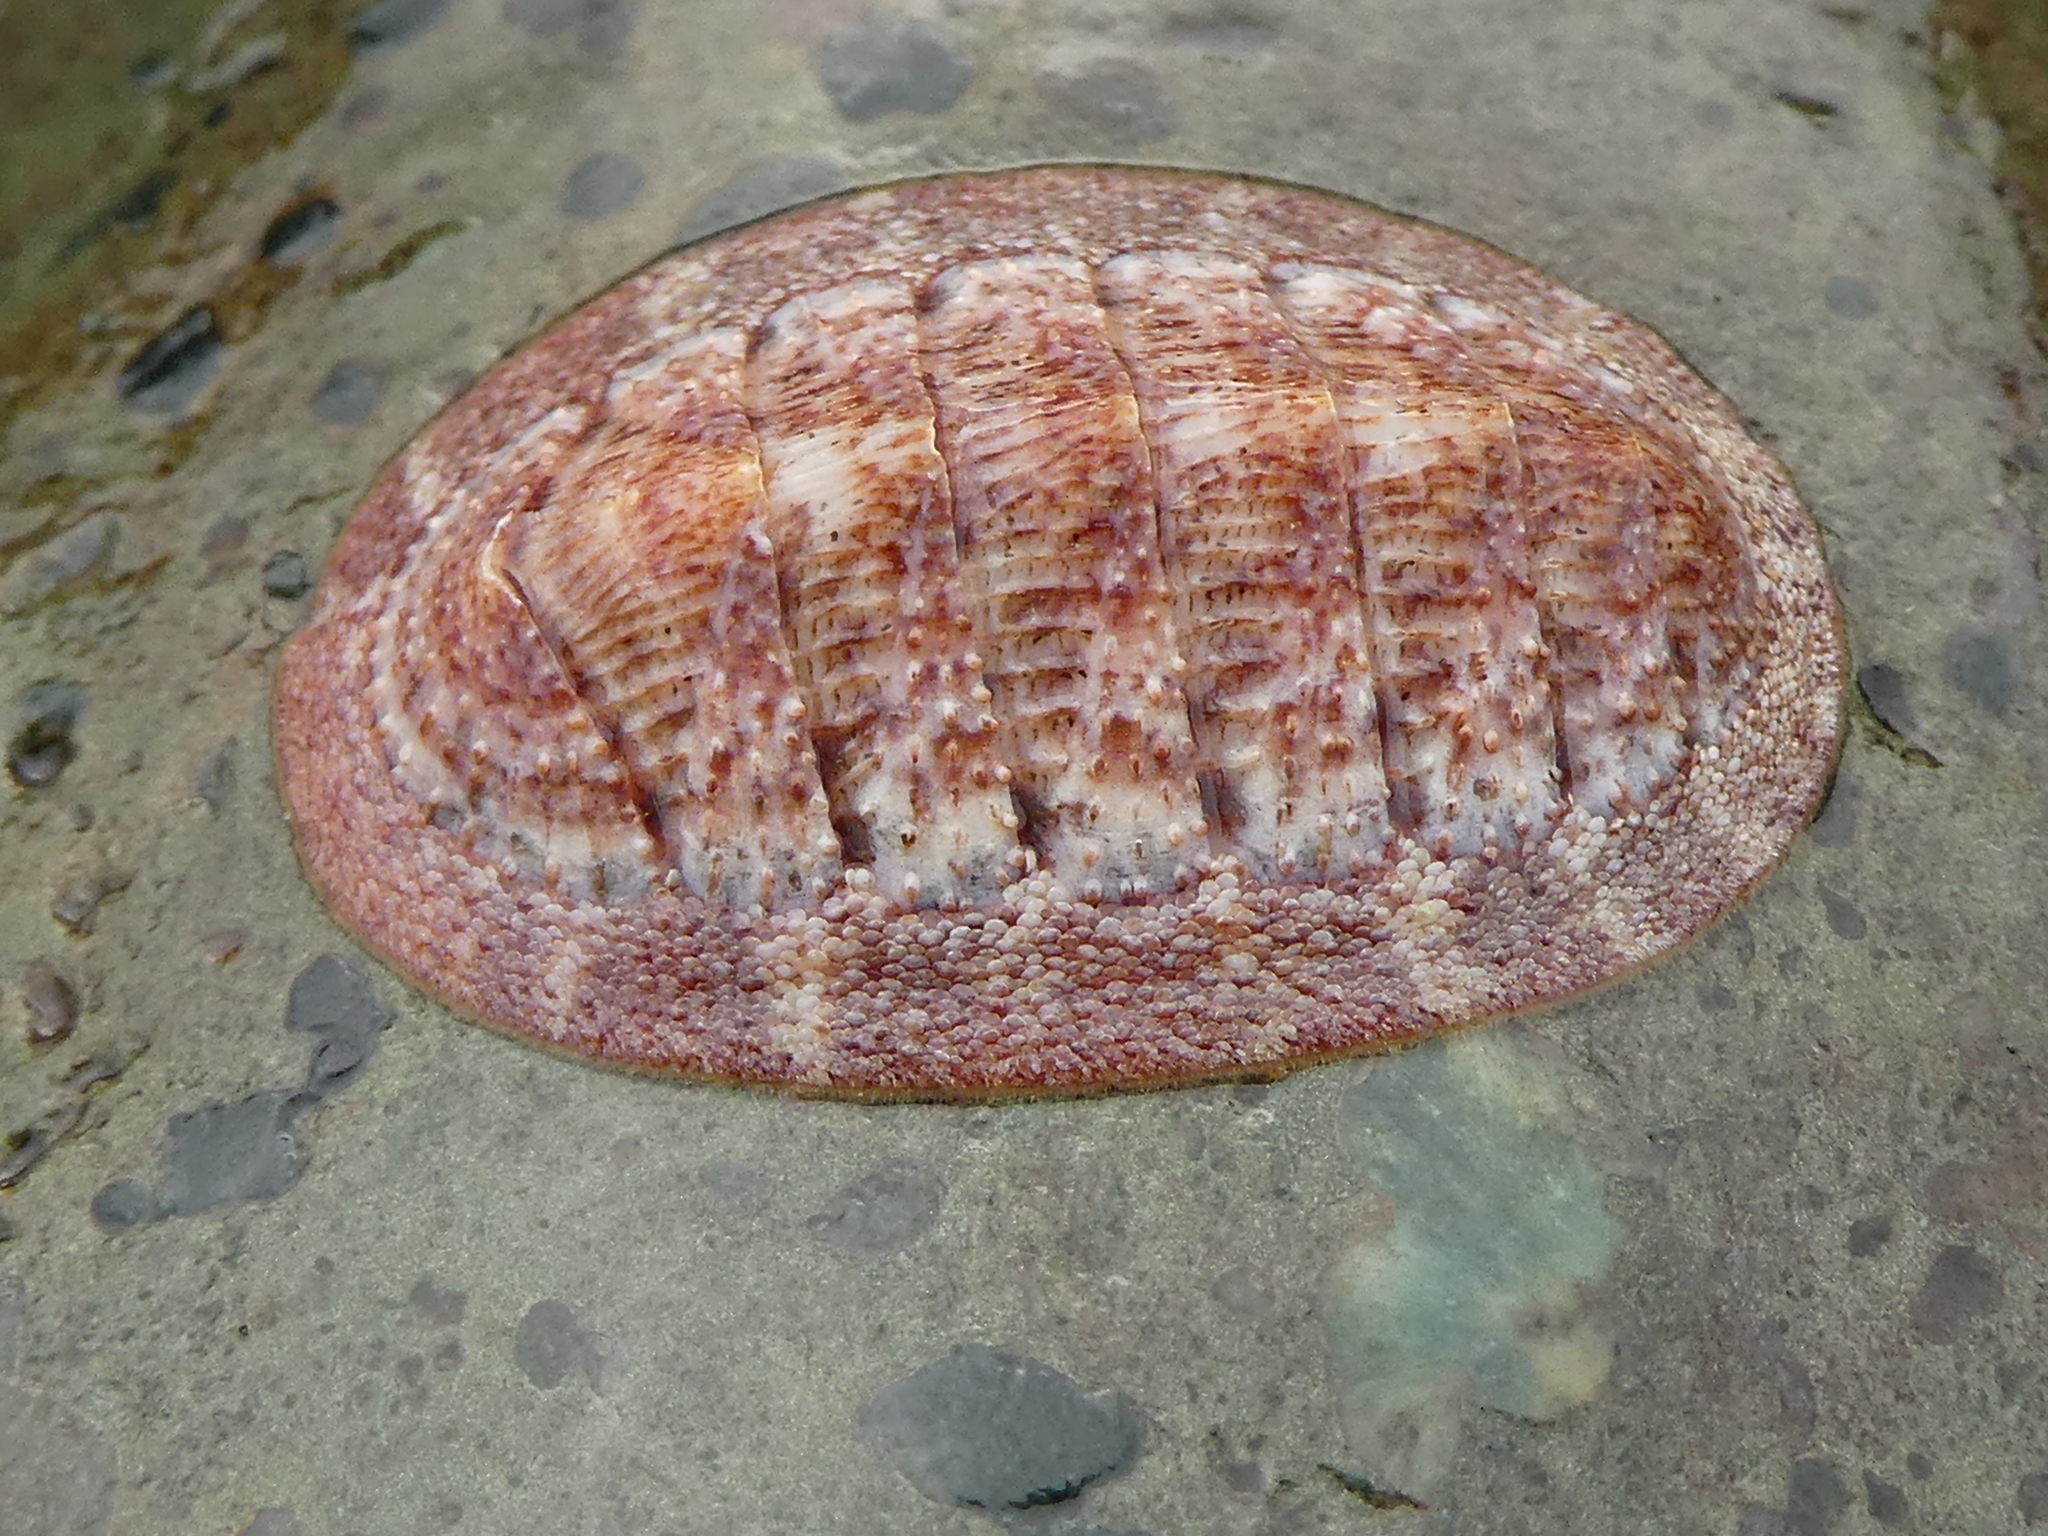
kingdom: Animalia
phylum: Mollusca
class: Polyplacophora
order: Chitonida
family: Ischnochitonidae
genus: Lepidozona
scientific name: Lepidozona mertensii
